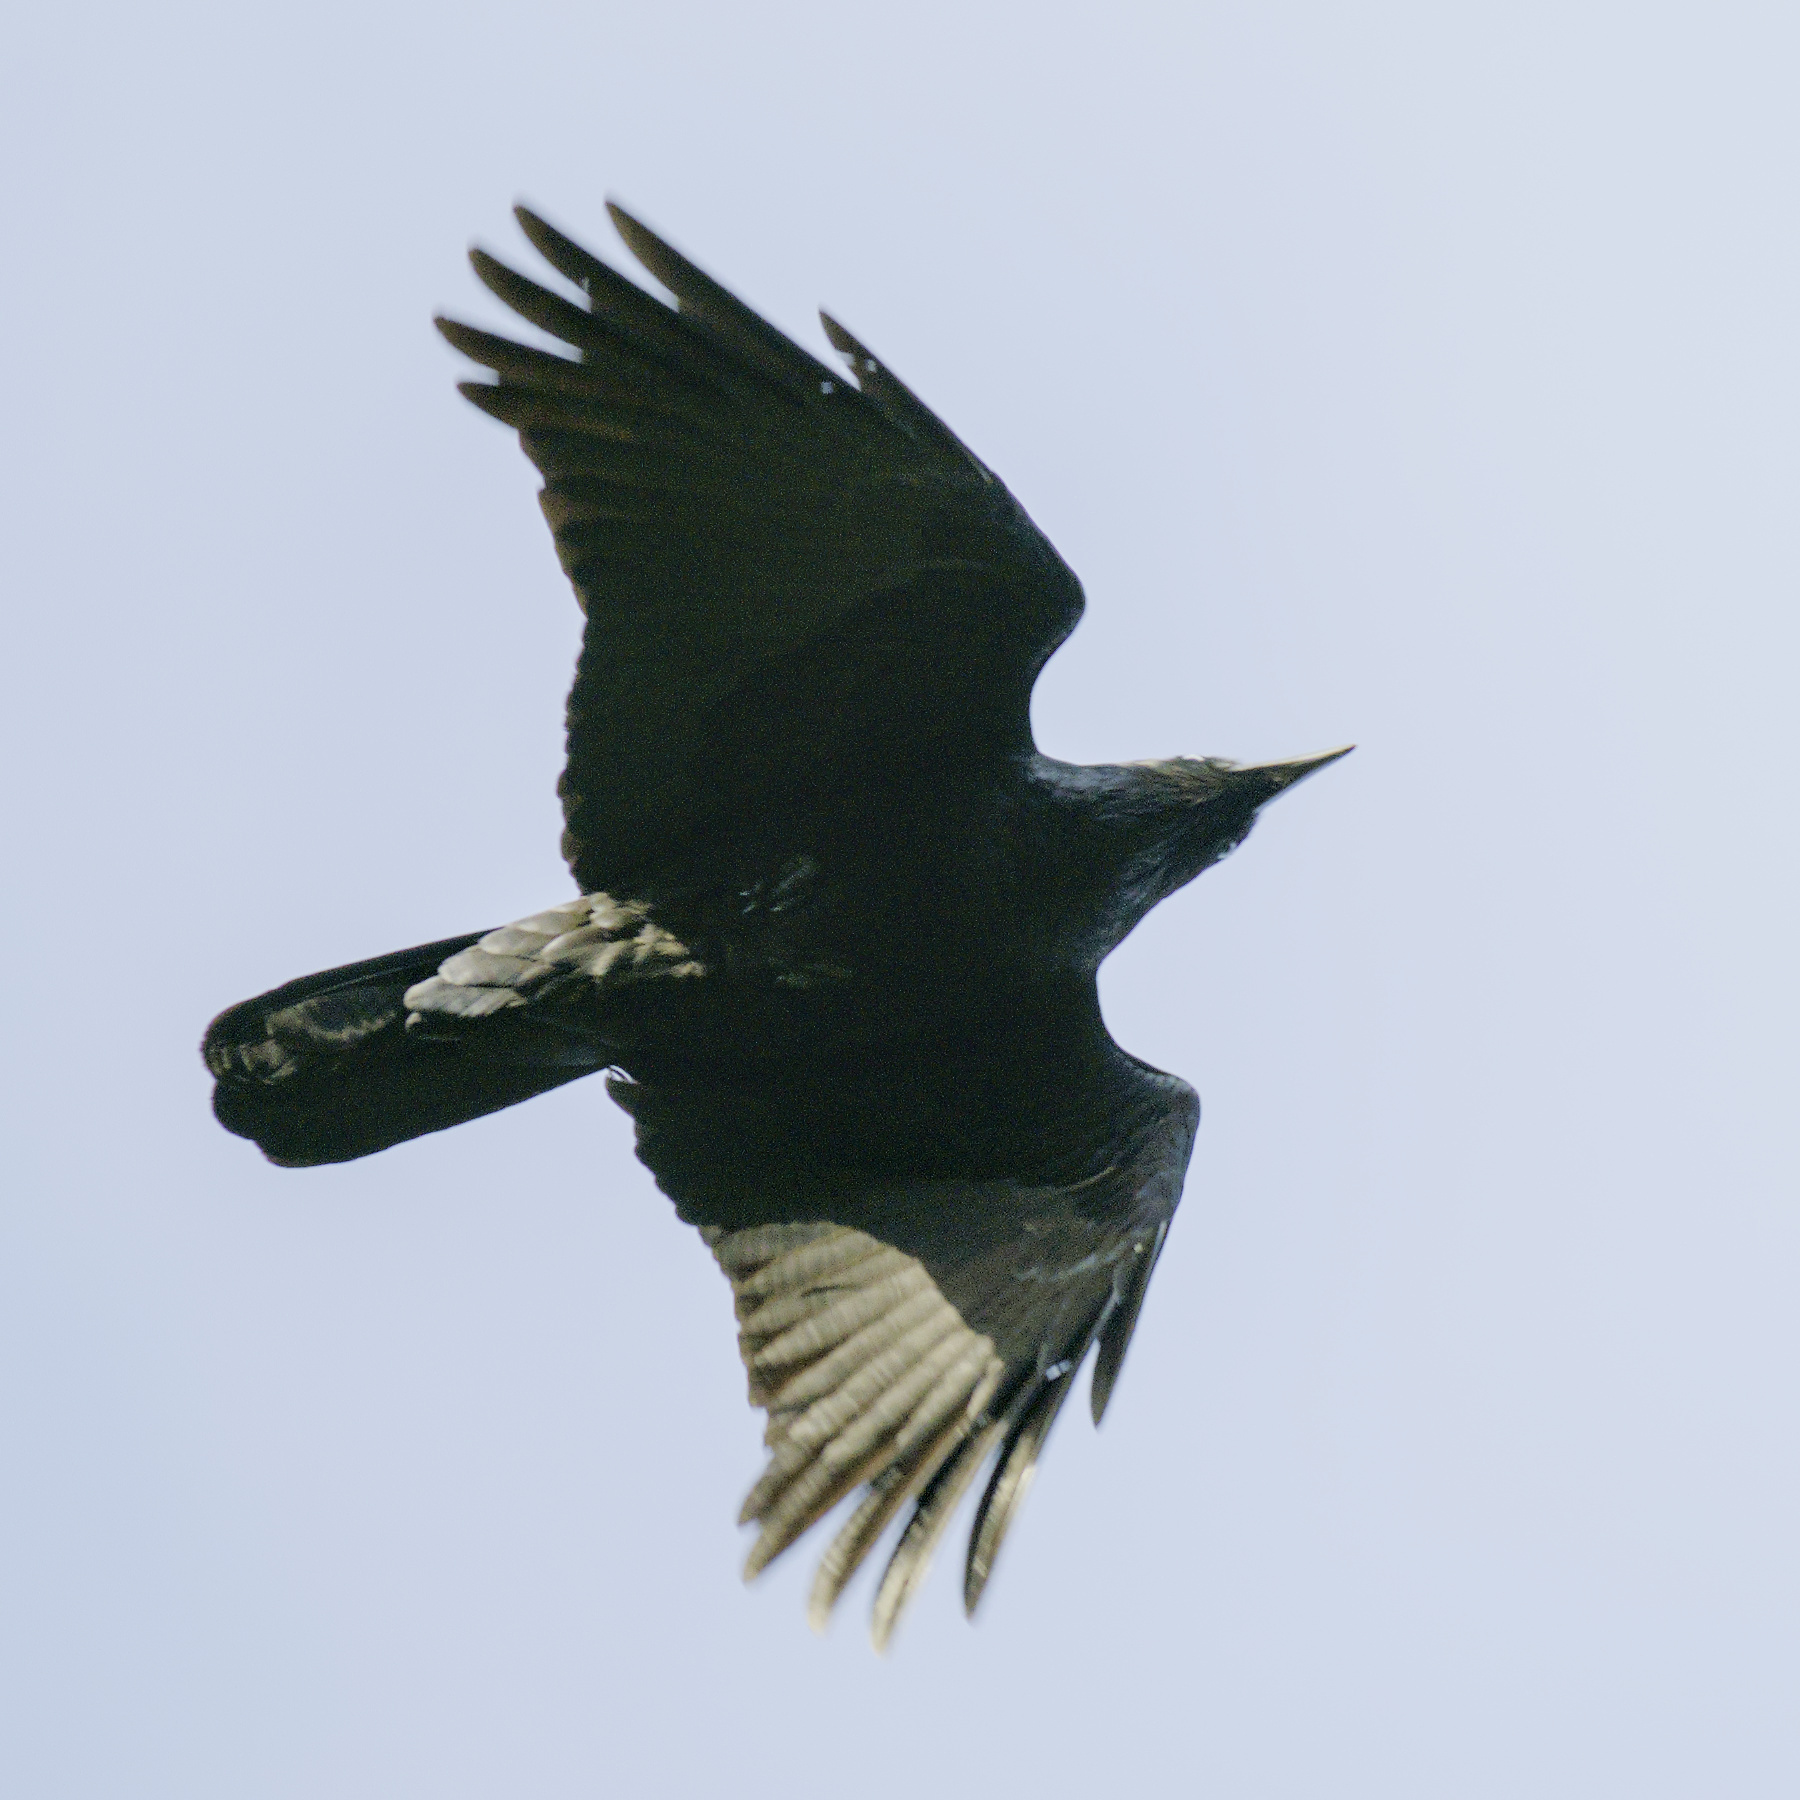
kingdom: Animalia
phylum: Chordata
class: Aves
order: Passeriformes
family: Corvidae
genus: Corvus
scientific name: Corvus mellori
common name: Little raven
